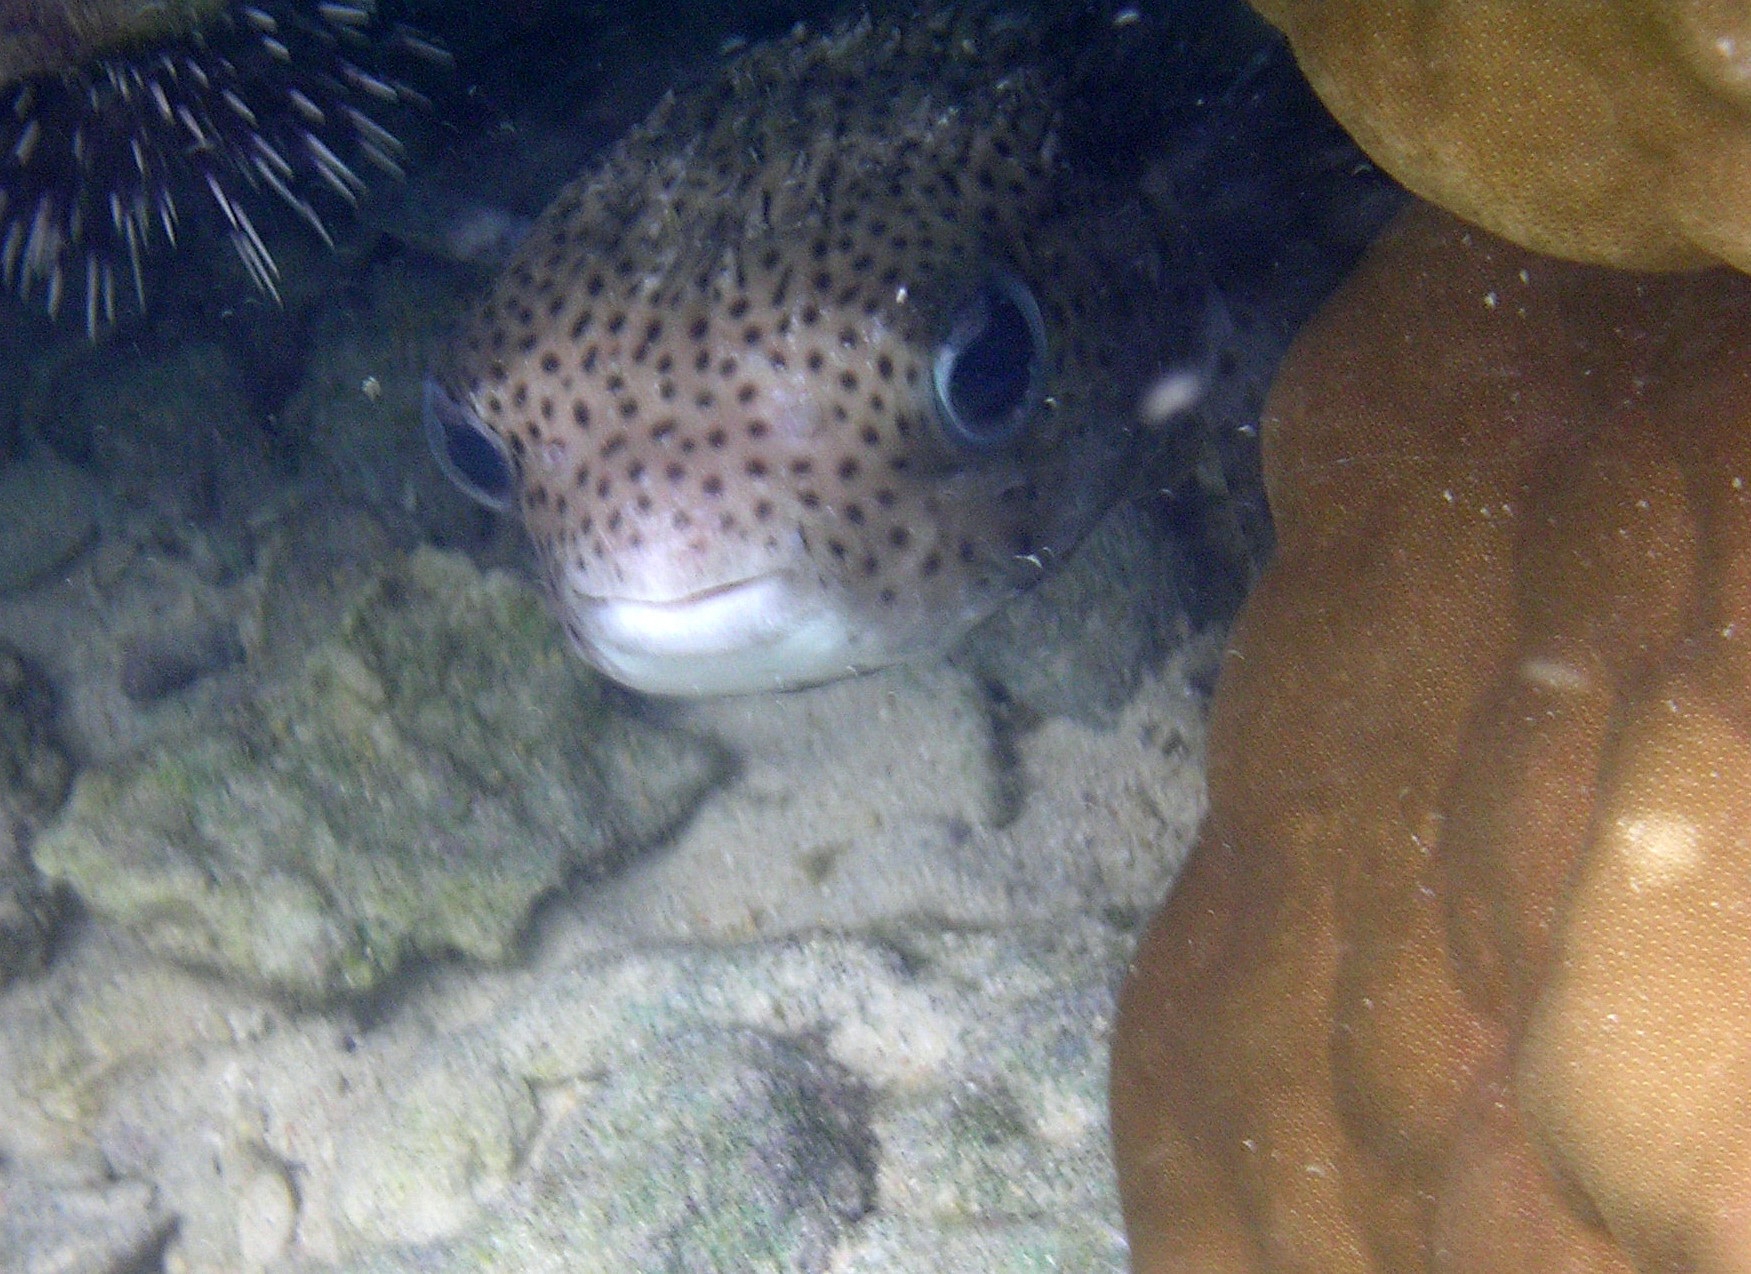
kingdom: Animalia
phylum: Chordata
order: Tetraodontiformes
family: Diodontidae
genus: Diodon
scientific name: Diodon hystrix
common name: Giant porcupinefish
